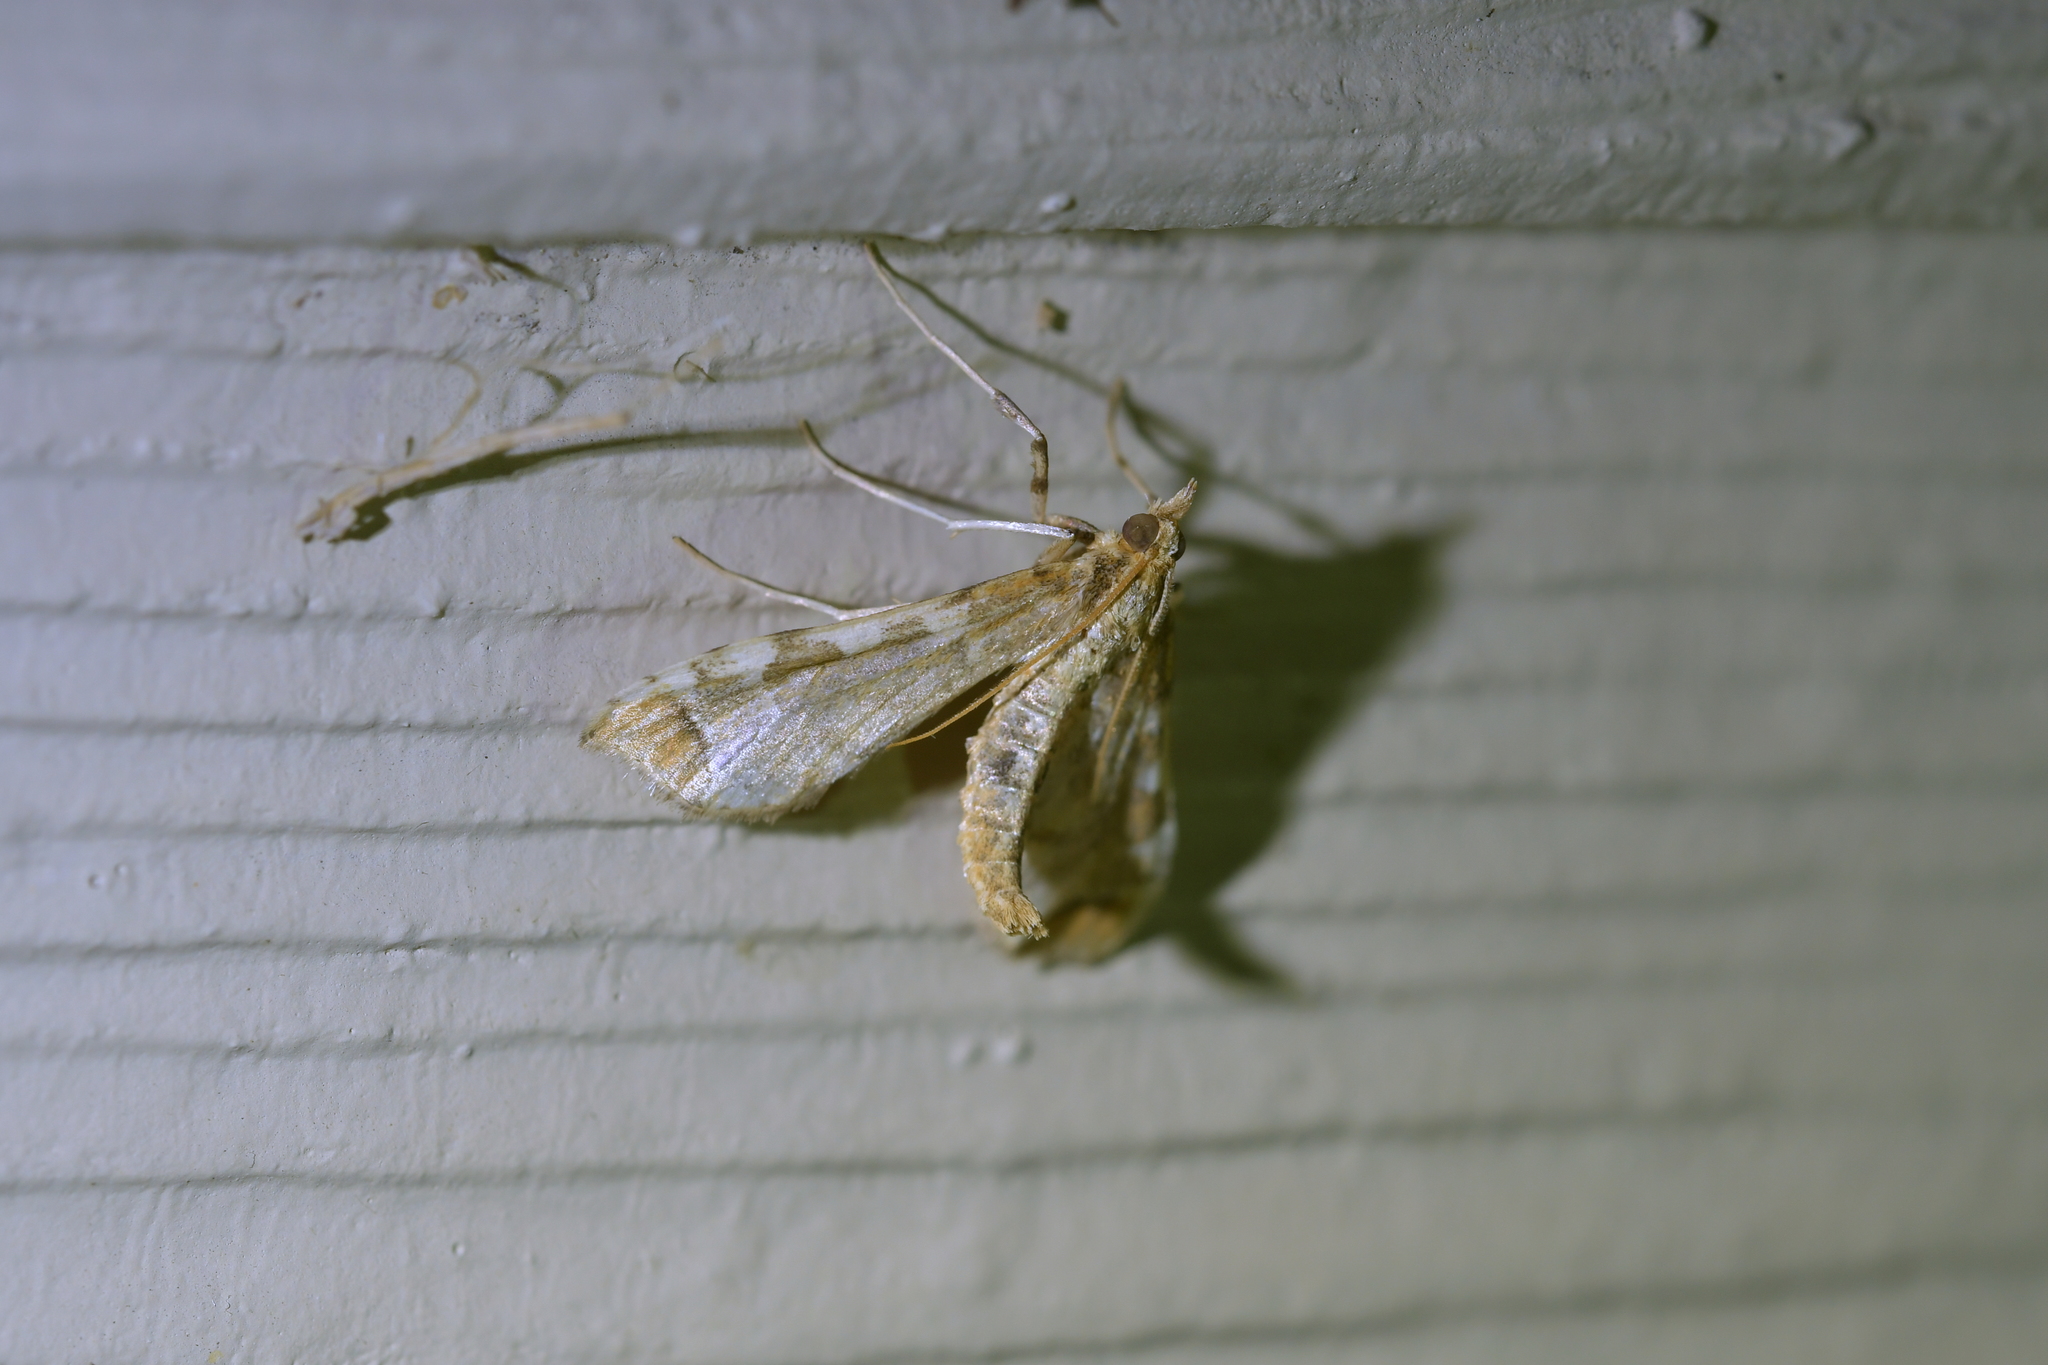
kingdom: Animalia
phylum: Arthropoda
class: Insecta
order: Lepidoptera
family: Crambidae
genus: Sceliodes
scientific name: Sceliodes cordalis
